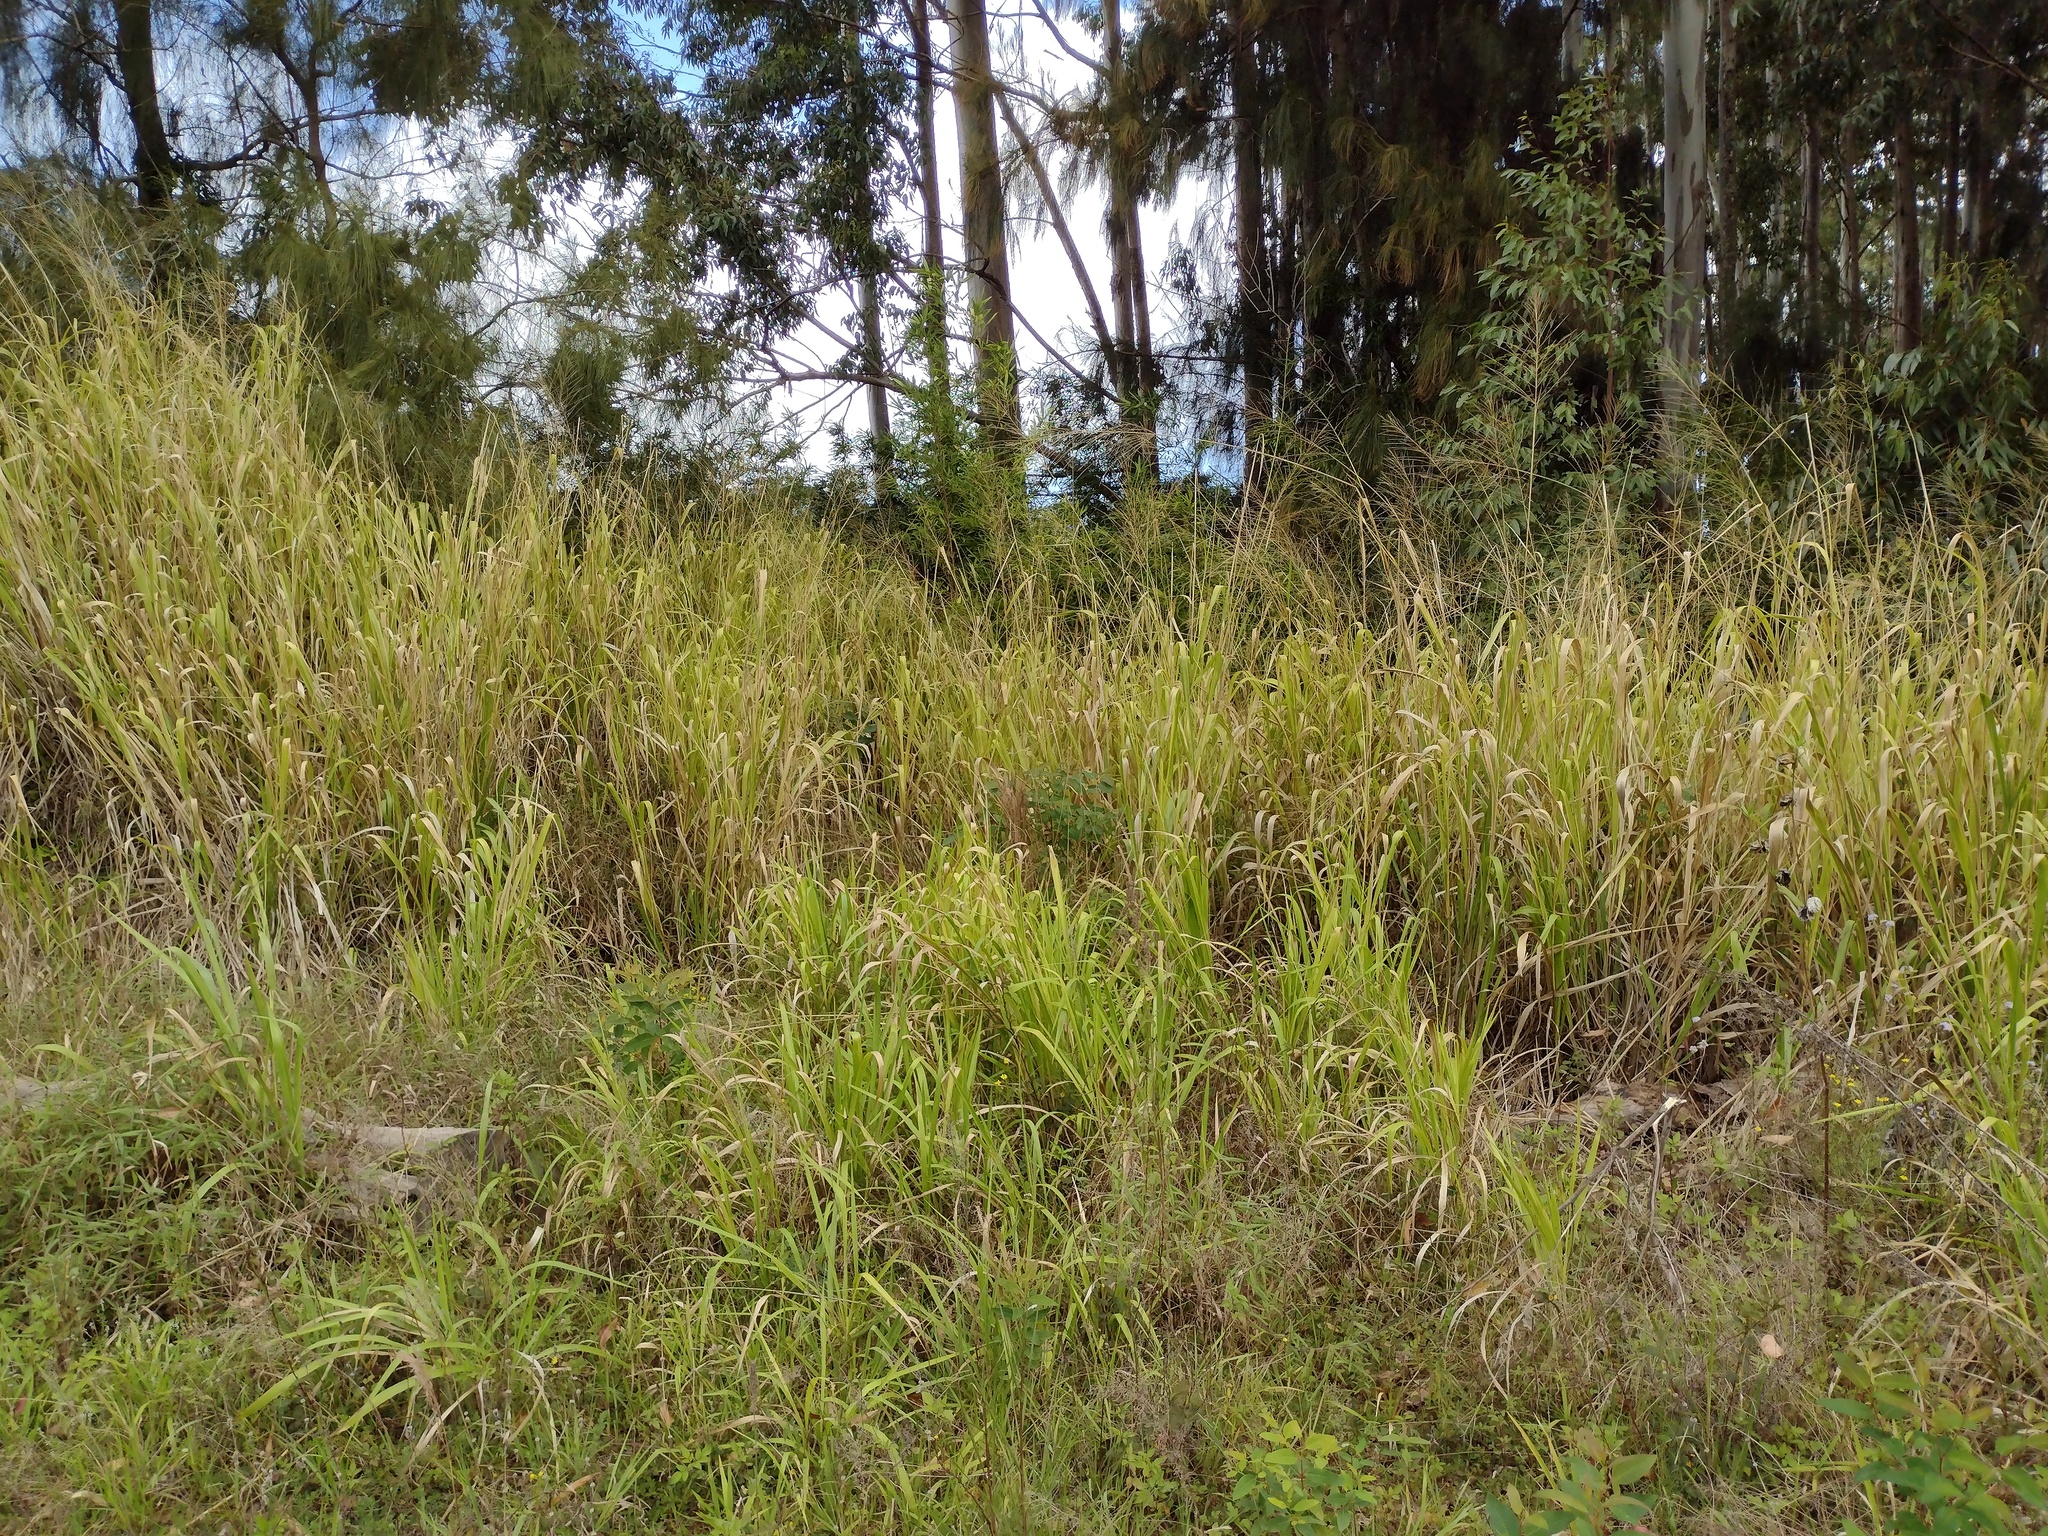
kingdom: Plantae
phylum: Tracheophyta
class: Liliopsida
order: Poales
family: Poaceae
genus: Megathyrsus
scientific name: Megathyrsus maximus
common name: Guineagrass
